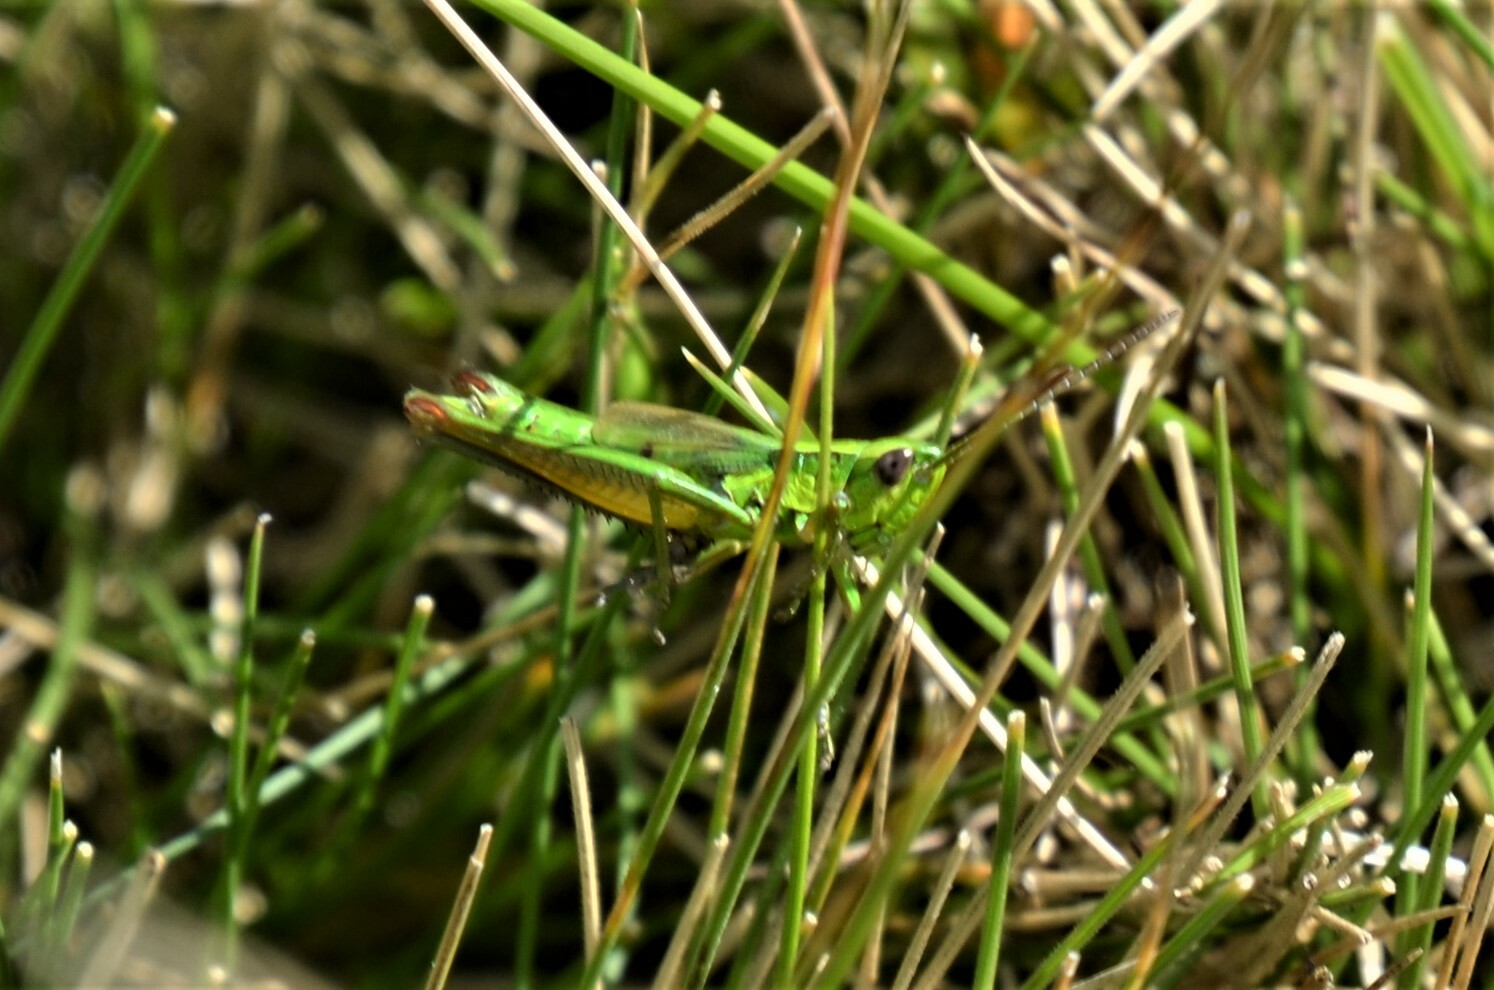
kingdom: Animalia
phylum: Arthropoda
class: Insecta
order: Orthoptera
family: Acrididae
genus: Euthystira
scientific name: Euthystira brachyptera
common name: Small gold grasshopper
